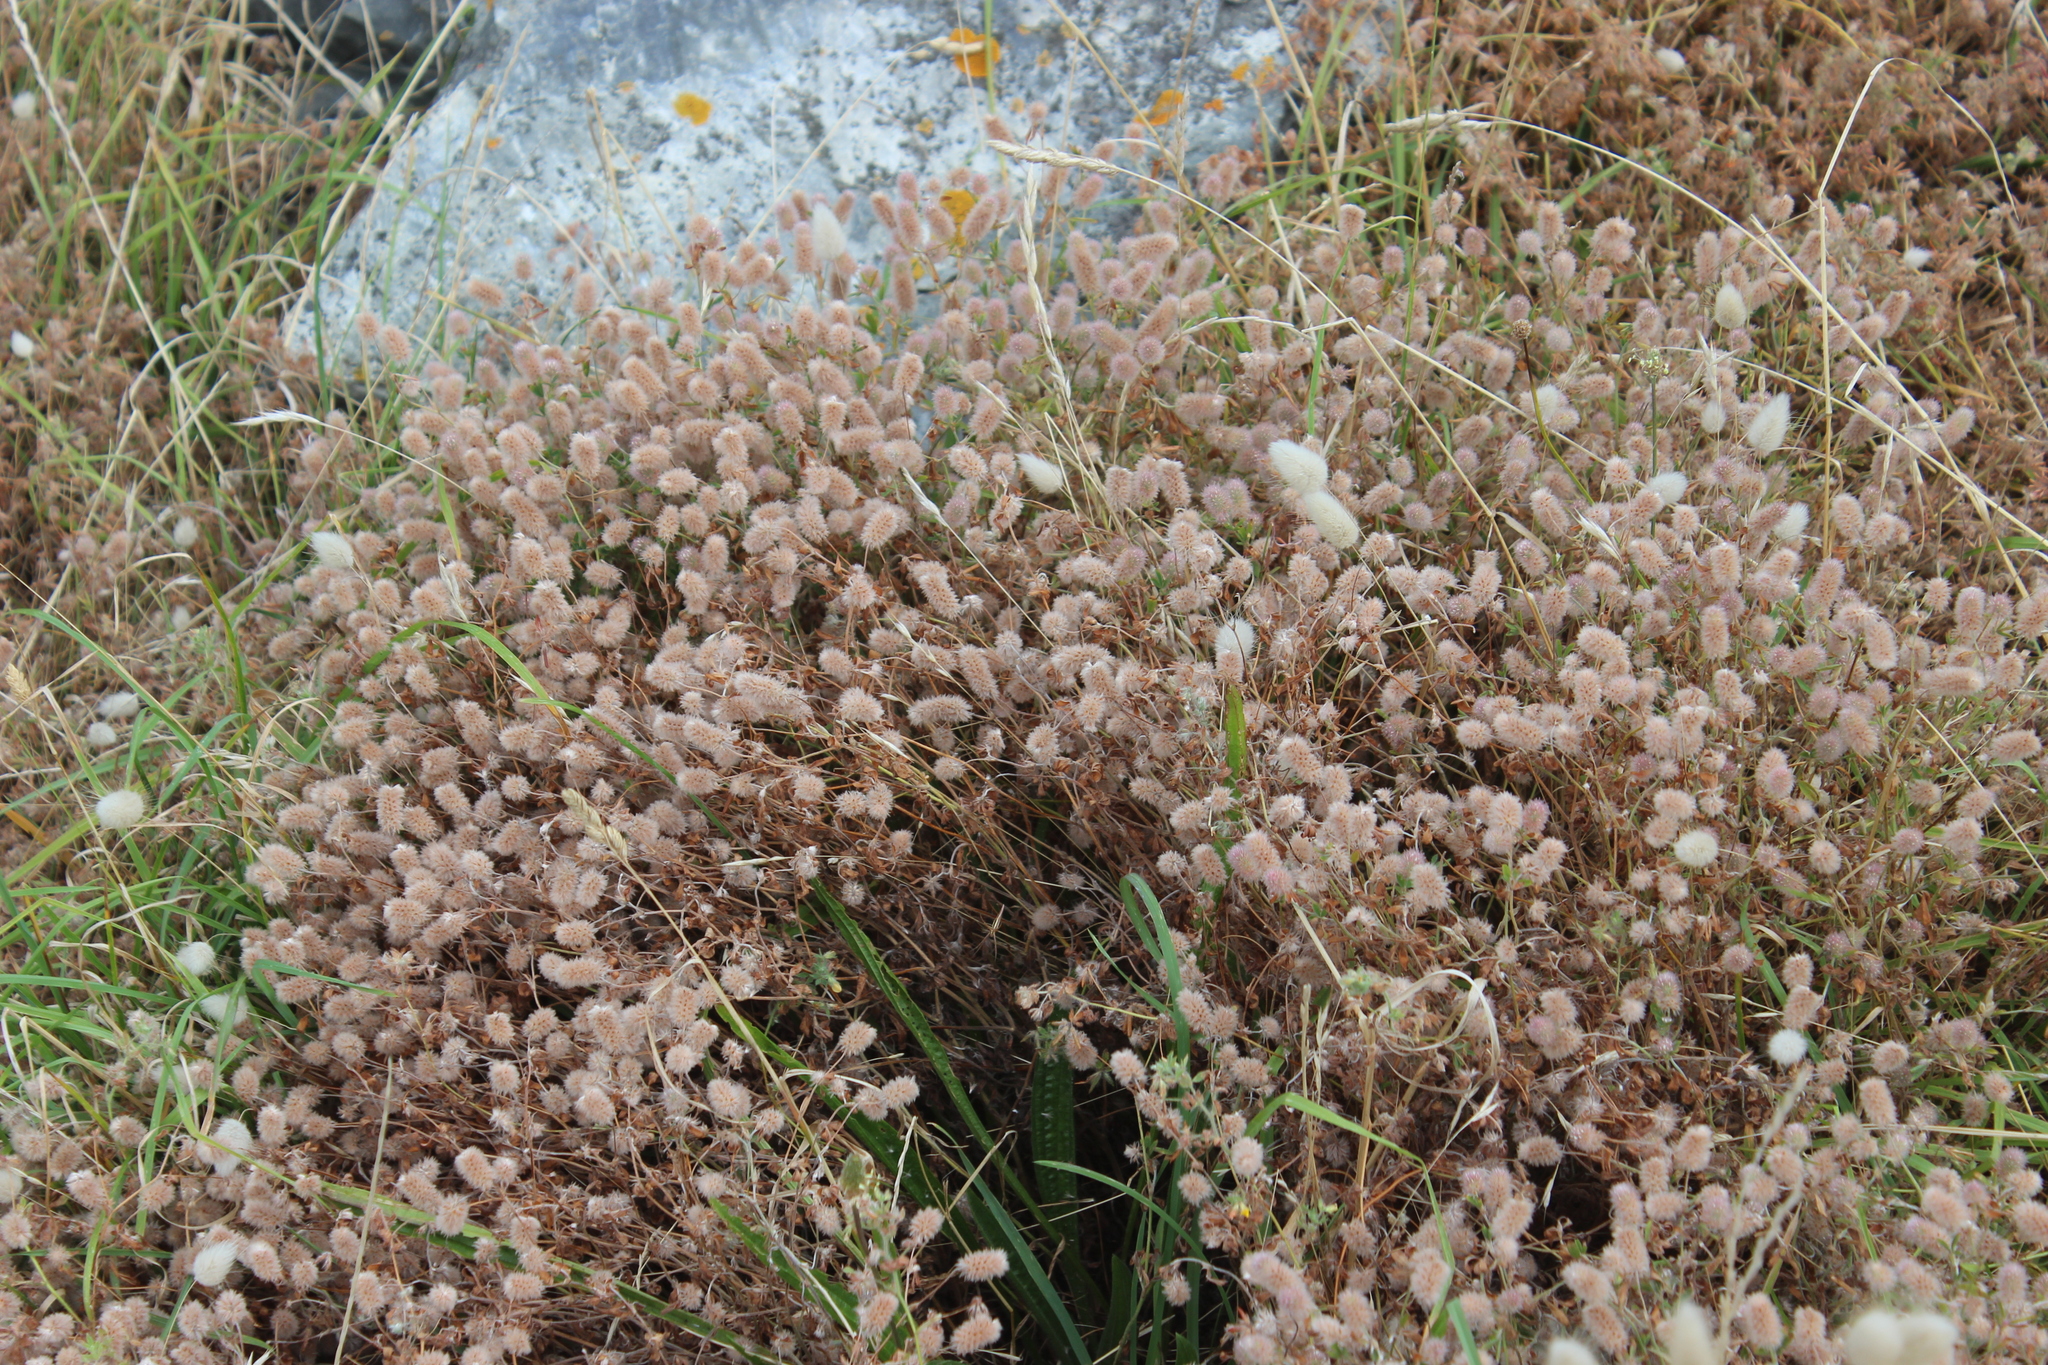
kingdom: Plantae
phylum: Tracheophyta
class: Magnoliopsida
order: Fabales
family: Fabaceae
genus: Trifolium
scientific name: Trifolium arvense
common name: Hare's-foot clover
